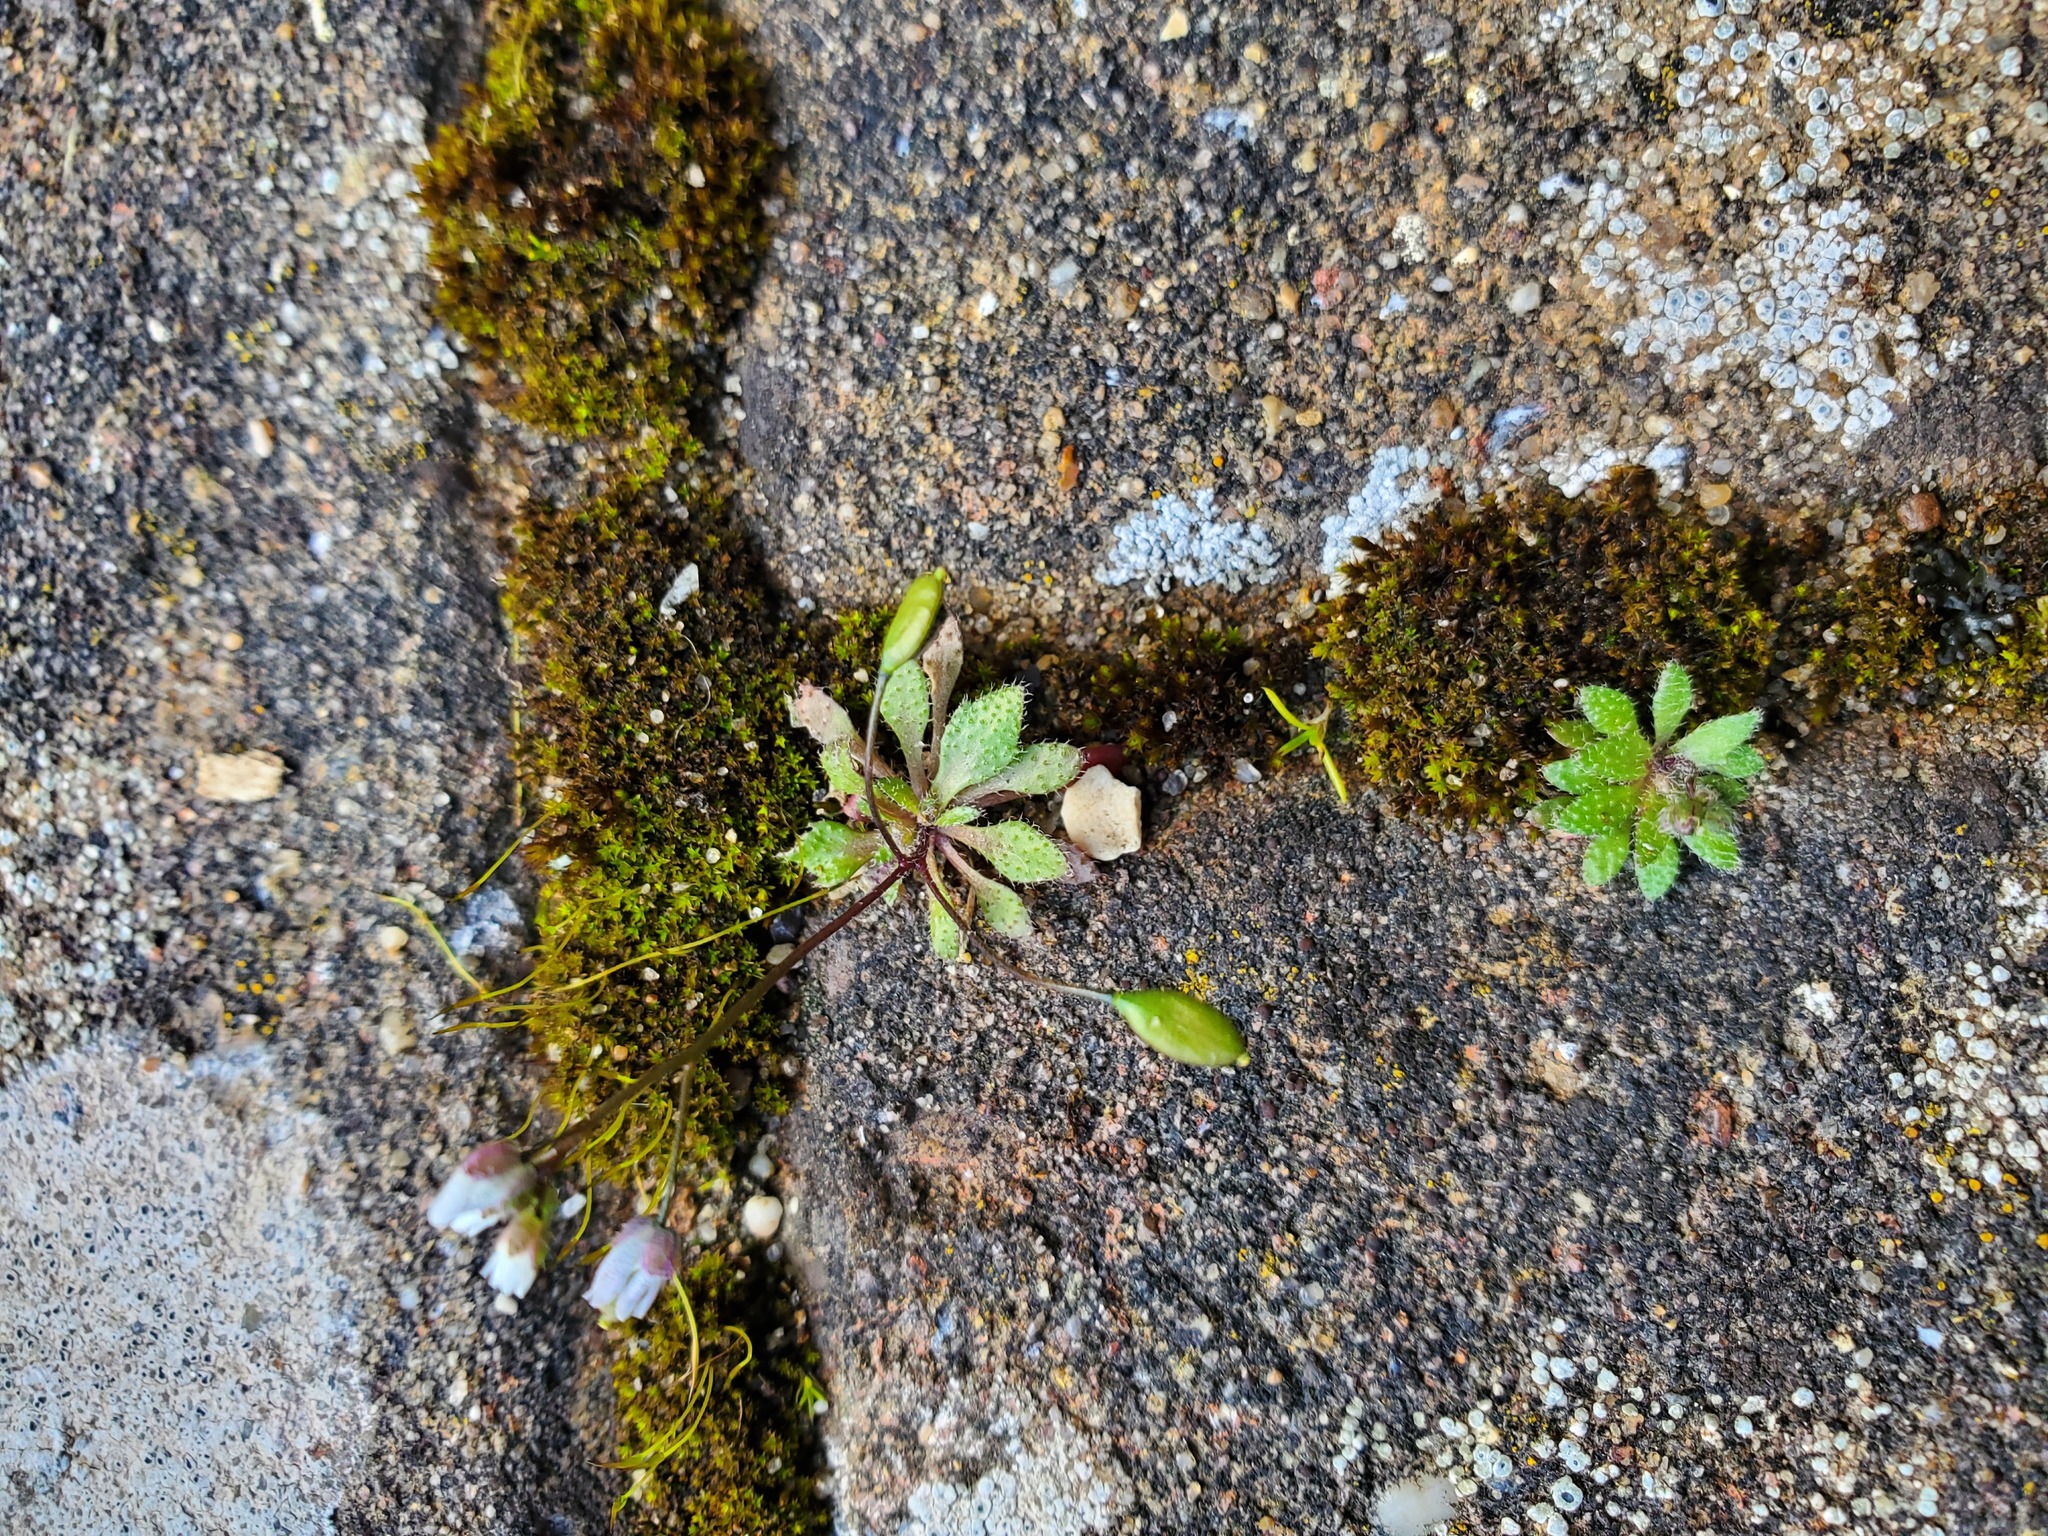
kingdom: Plantae
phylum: Tracheophyta
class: Magnoliopsida
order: Brassicales
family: Brassicaceae
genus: Draba
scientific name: Draba verna
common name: Spring draba
